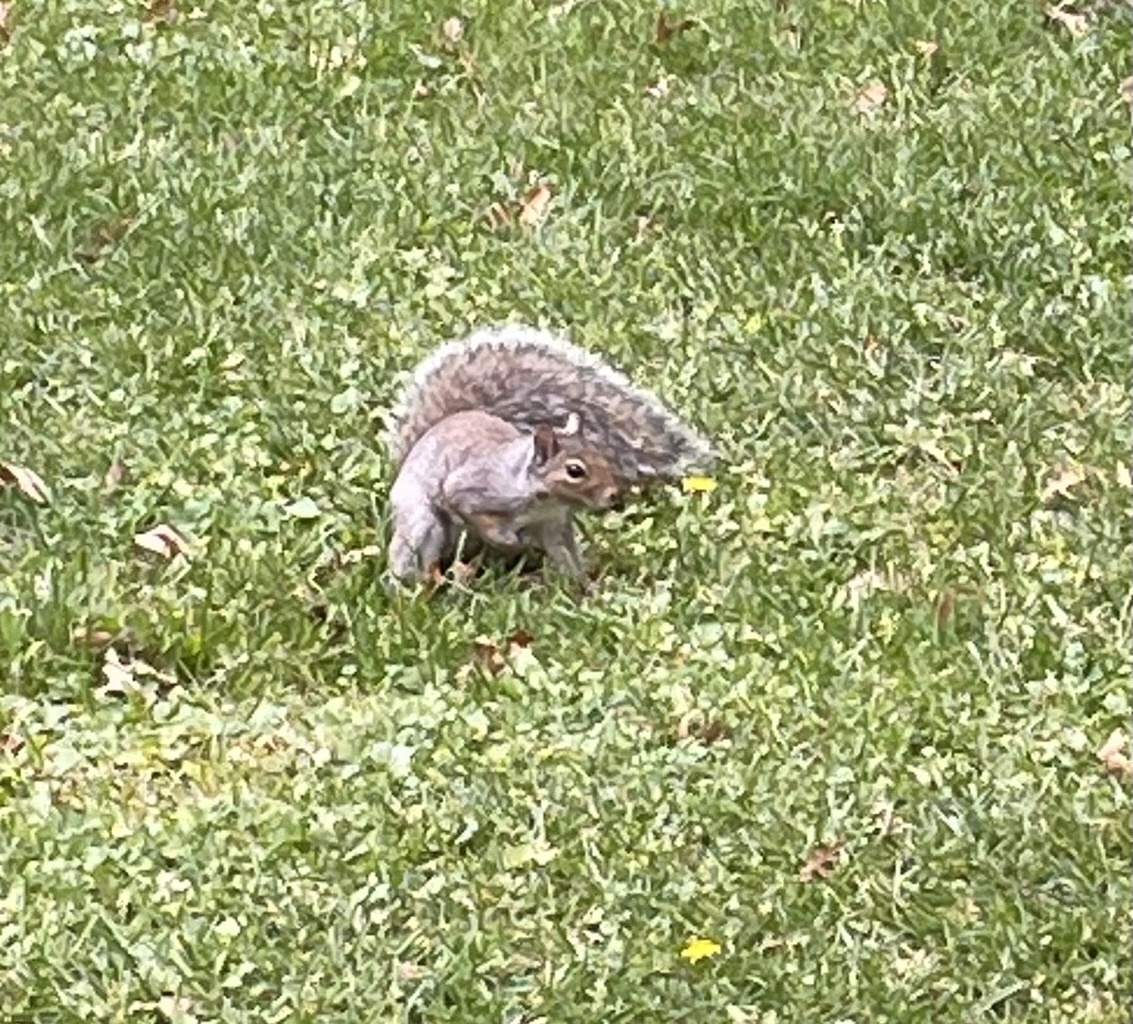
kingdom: Animalia
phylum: Chordata
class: Mammalia
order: Rodentia
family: Sciuridae
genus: Sciurus
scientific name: Sciurus carolinensis
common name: Eastern gray squirrel
